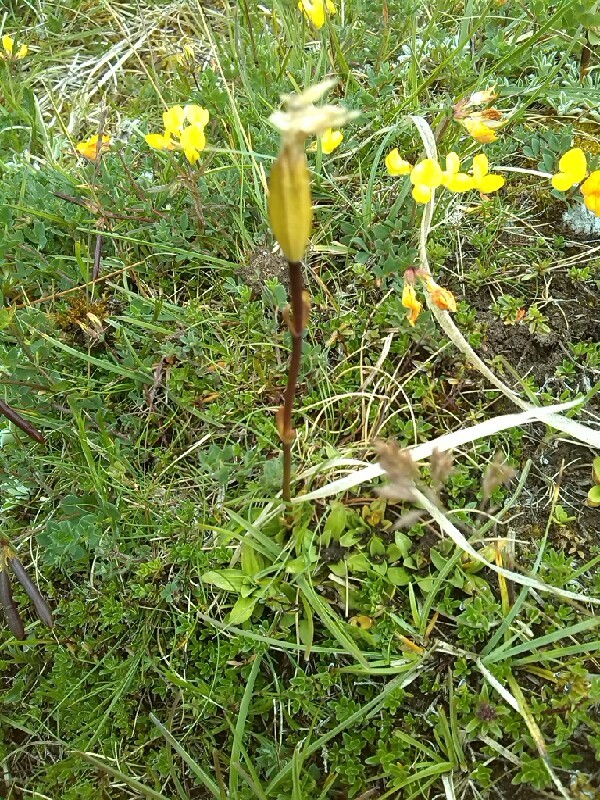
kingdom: Plantae
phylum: Tracheophyta
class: Magnoliopsida
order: Gentianales
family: Gentianaceae
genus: Gentiana
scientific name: Gentiana verna
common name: Spring gentian
